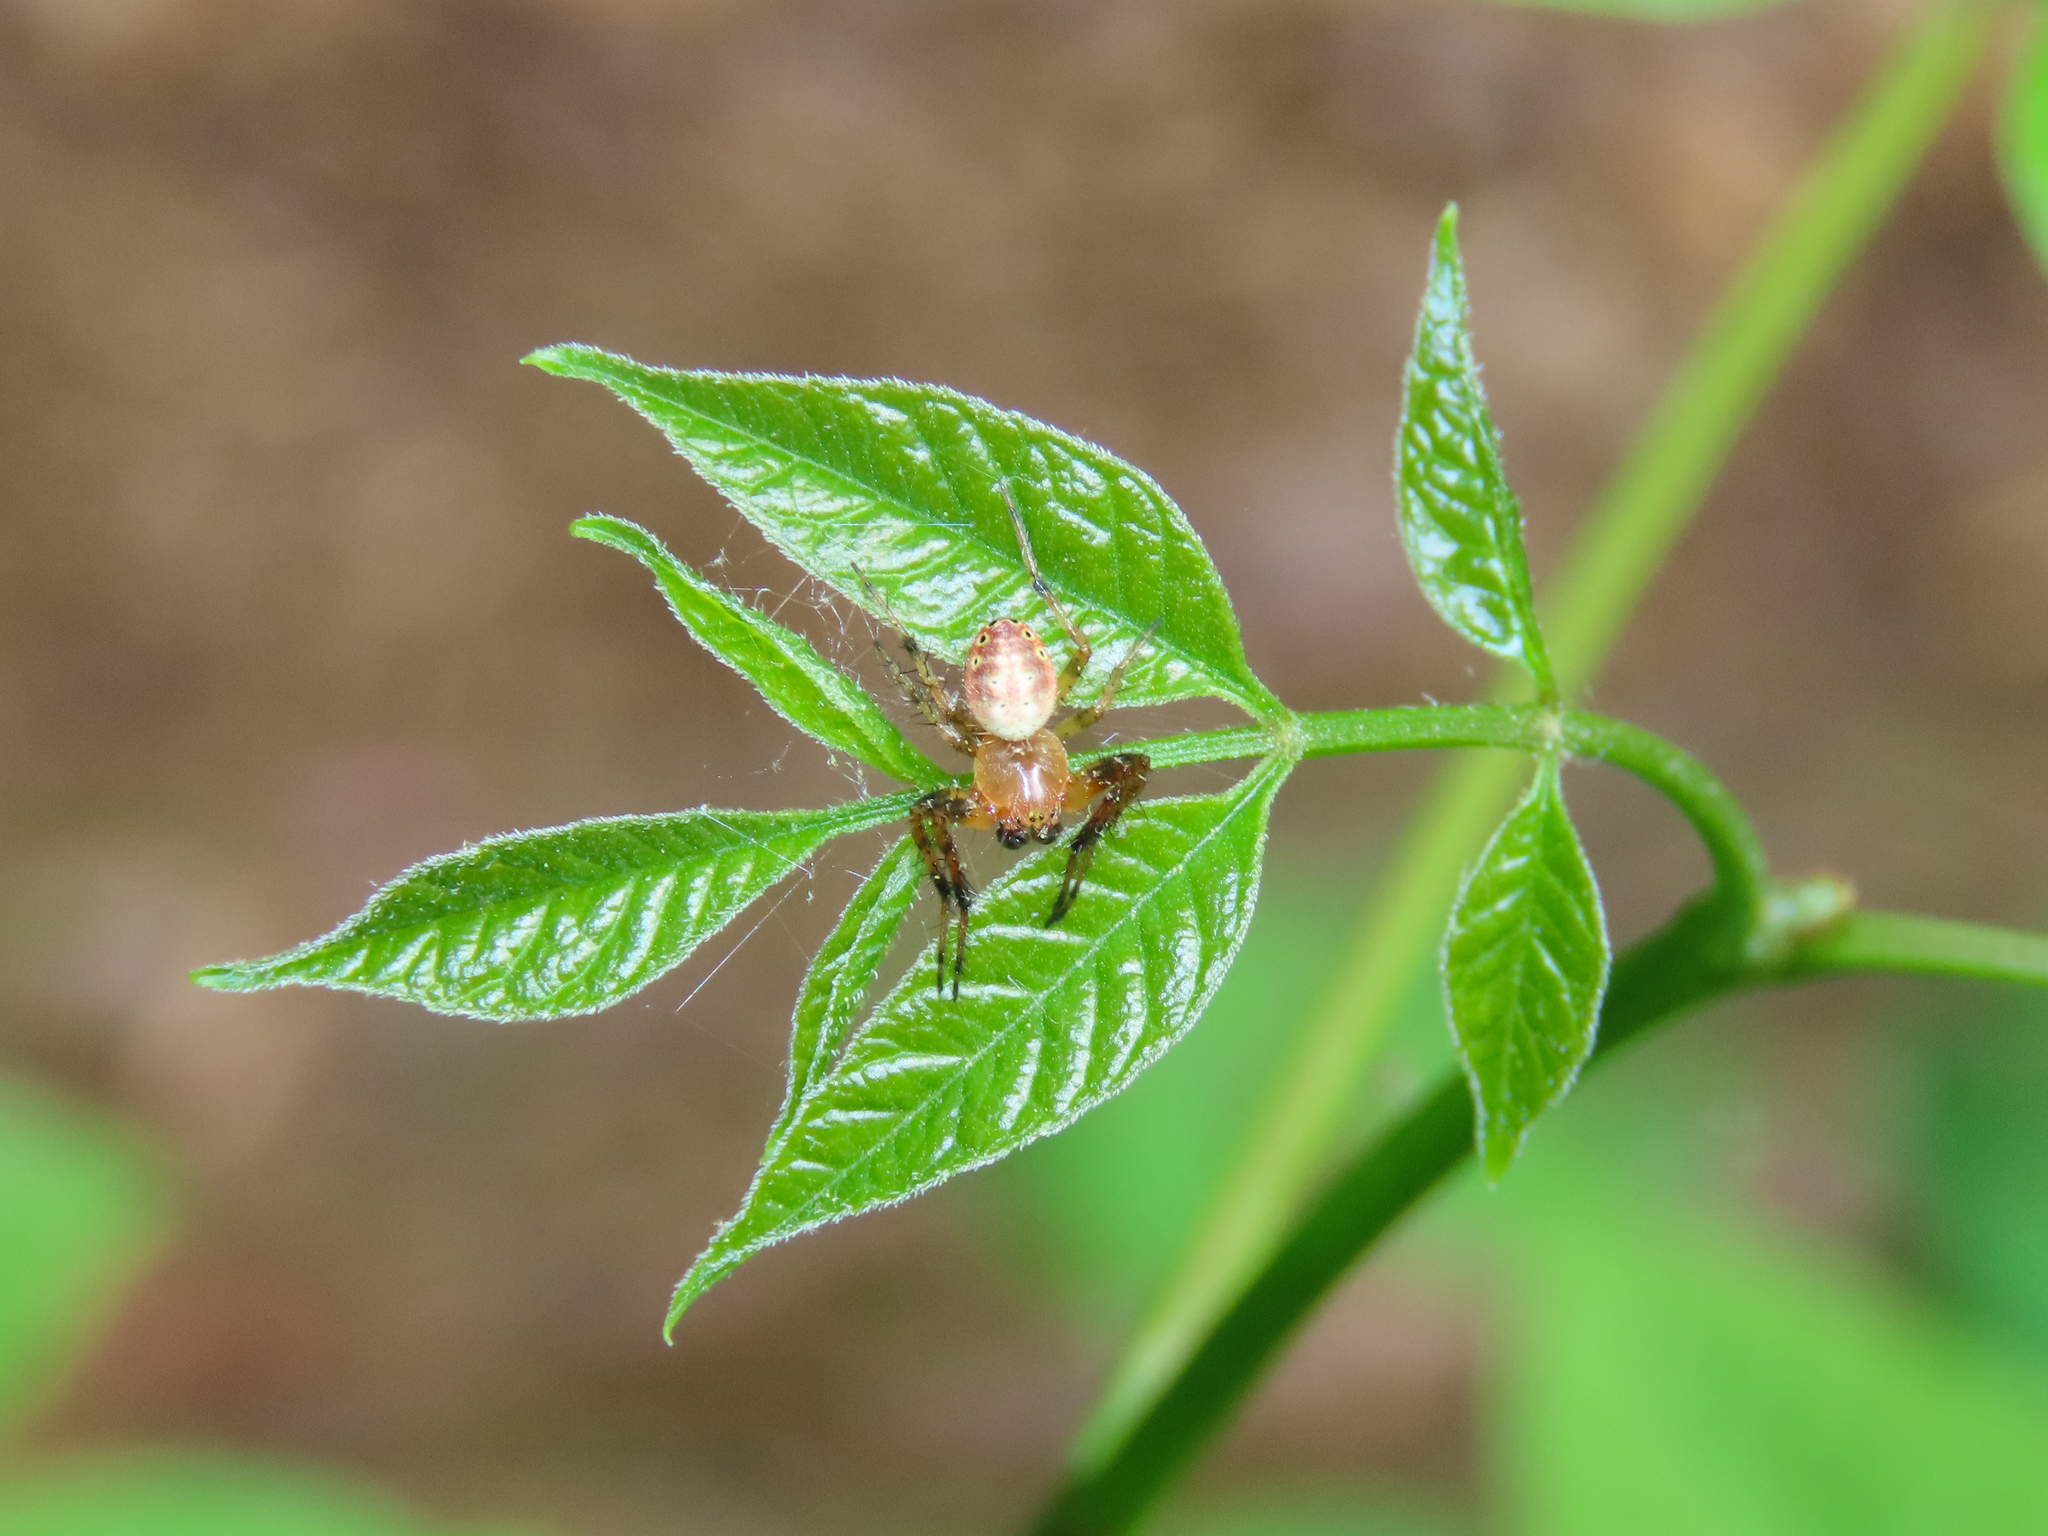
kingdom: Animalia
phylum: Arthropoda
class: Arachnida
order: Araneae
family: Araneidae
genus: Araniella
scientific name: Araniella displicata
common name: Sixspotted orb weaver
